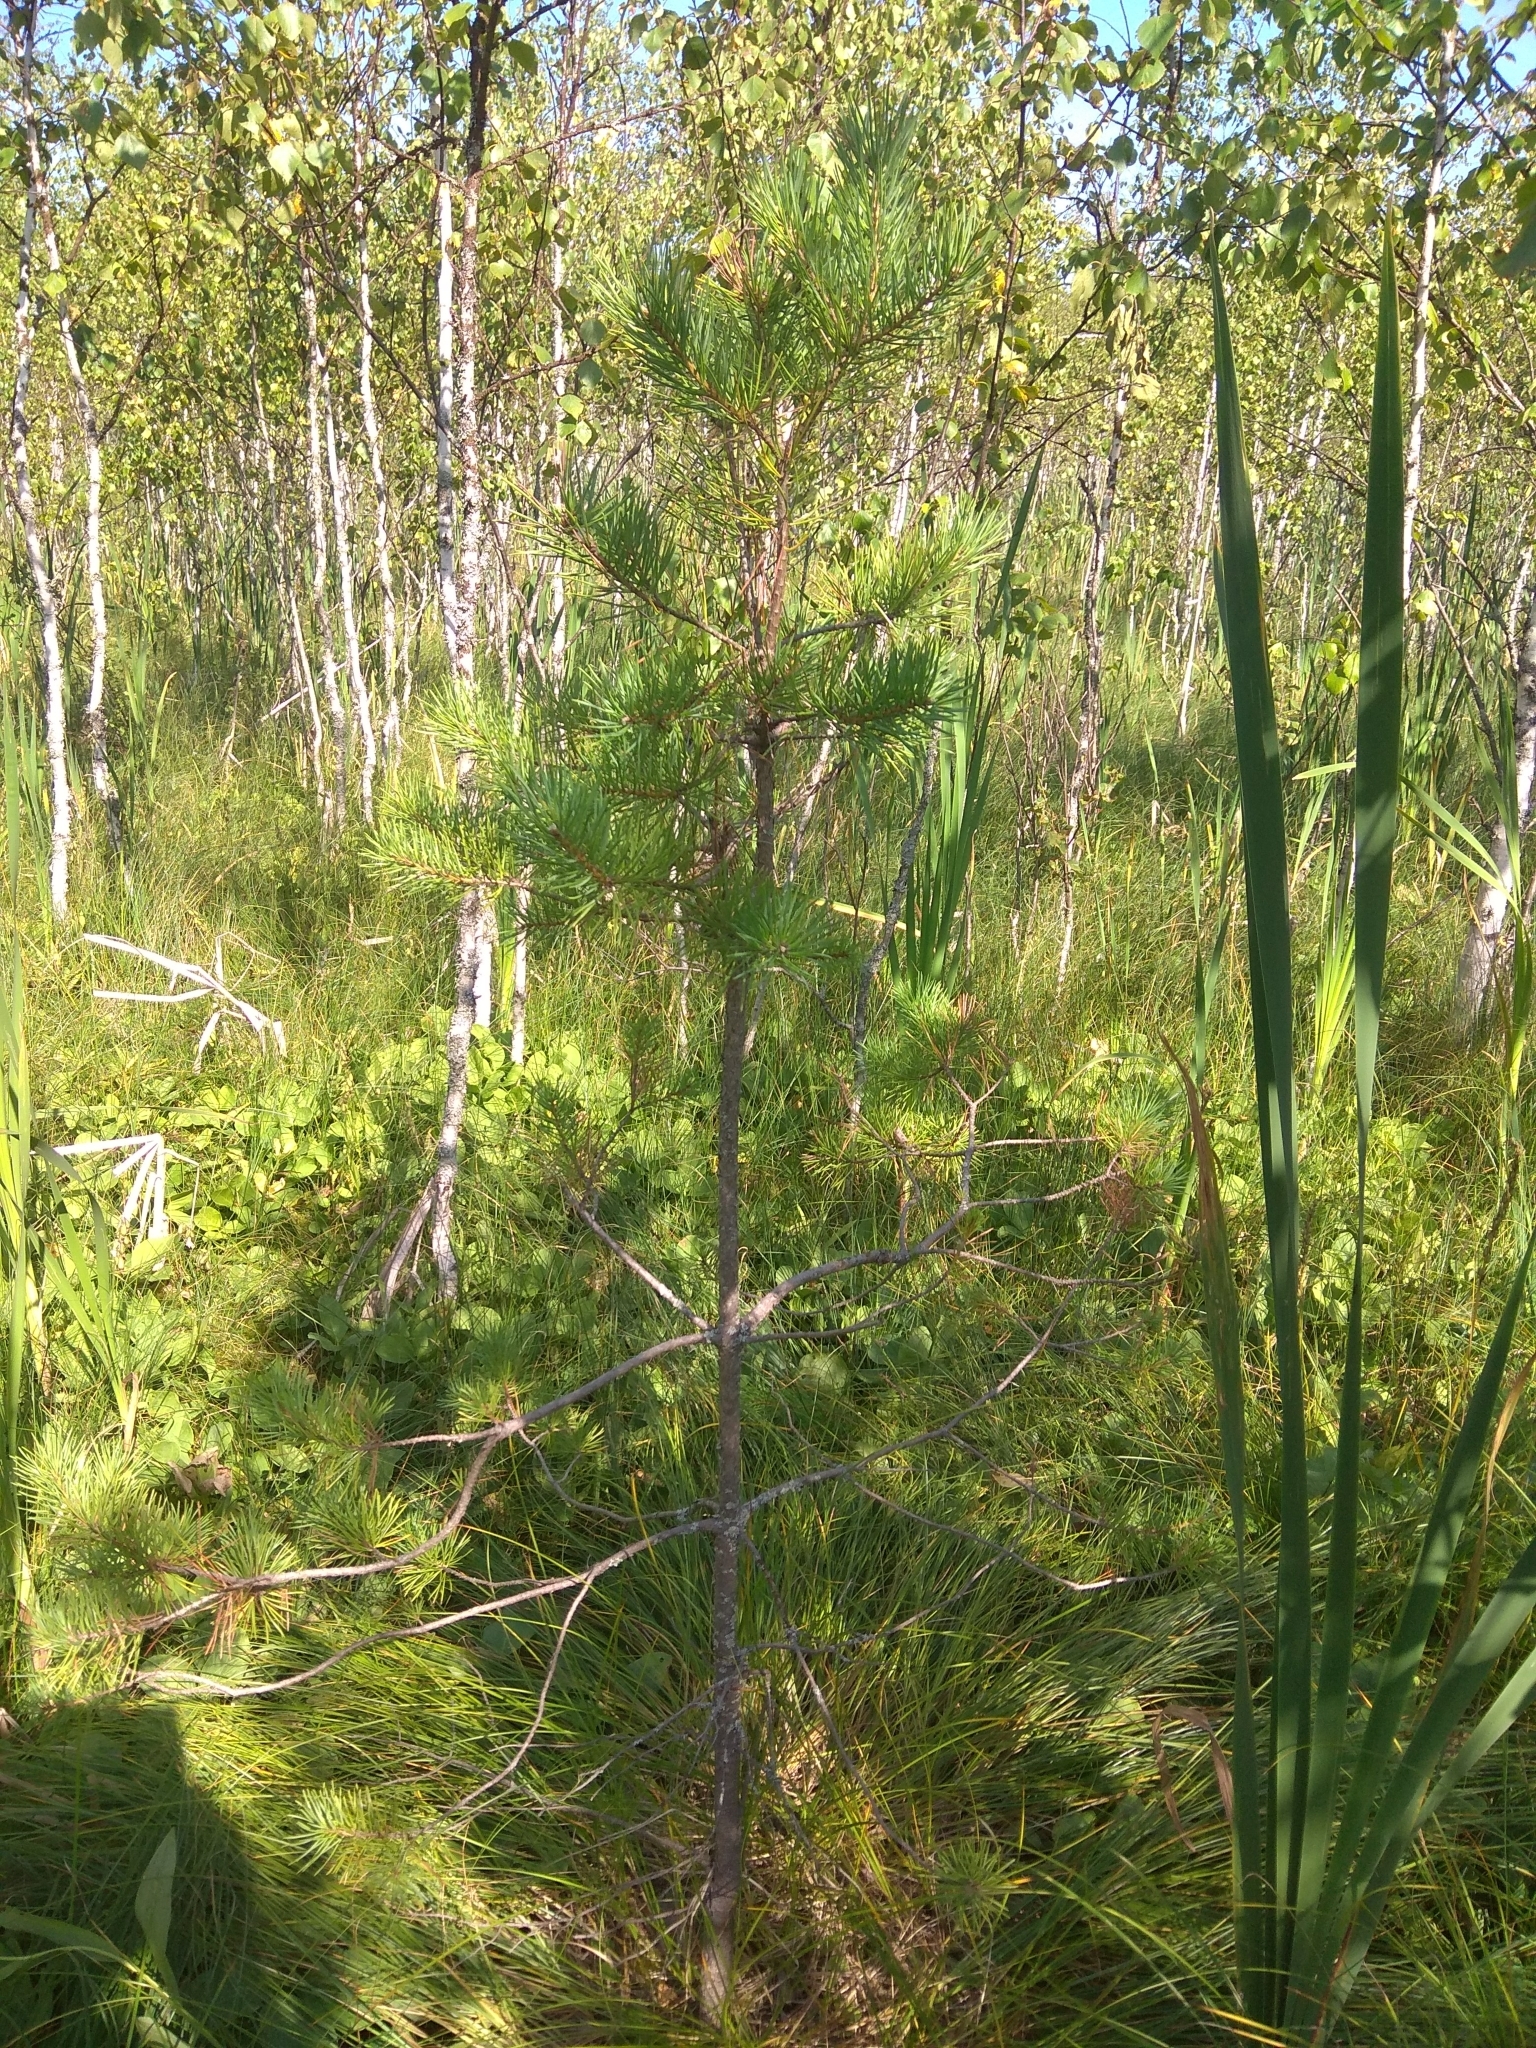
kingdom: Plantae
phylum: Tracheophyta
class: Pinopsida
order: Pinales
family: Pinaceae
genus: Pinus
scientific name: Pinus sylvestris
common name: Scots pine
